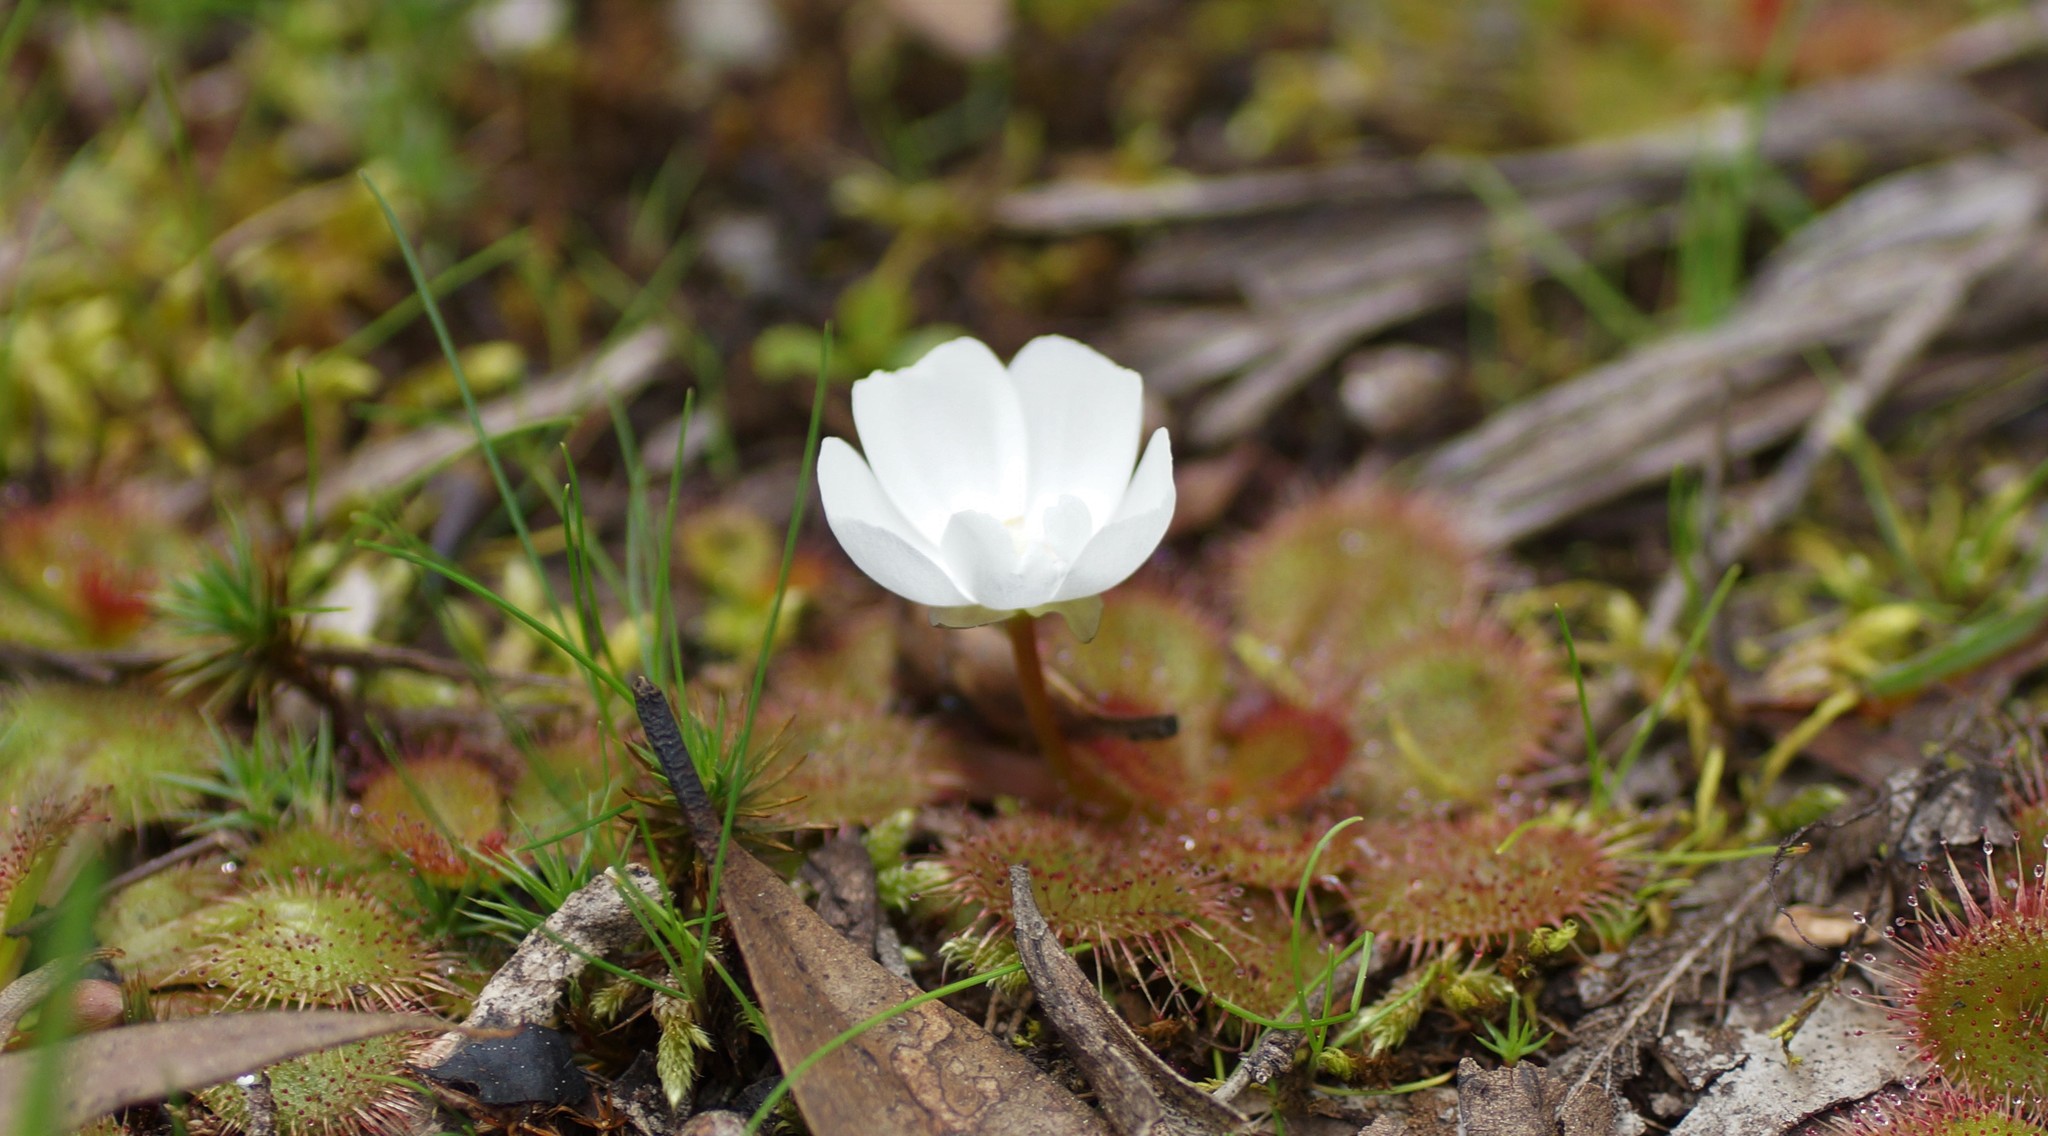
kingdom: Plantae
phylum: Tracheophyta
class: Magnoliopsida
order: Caryophyllales
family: Droseraceae
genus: Drosera
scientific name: Drosera aberrans
